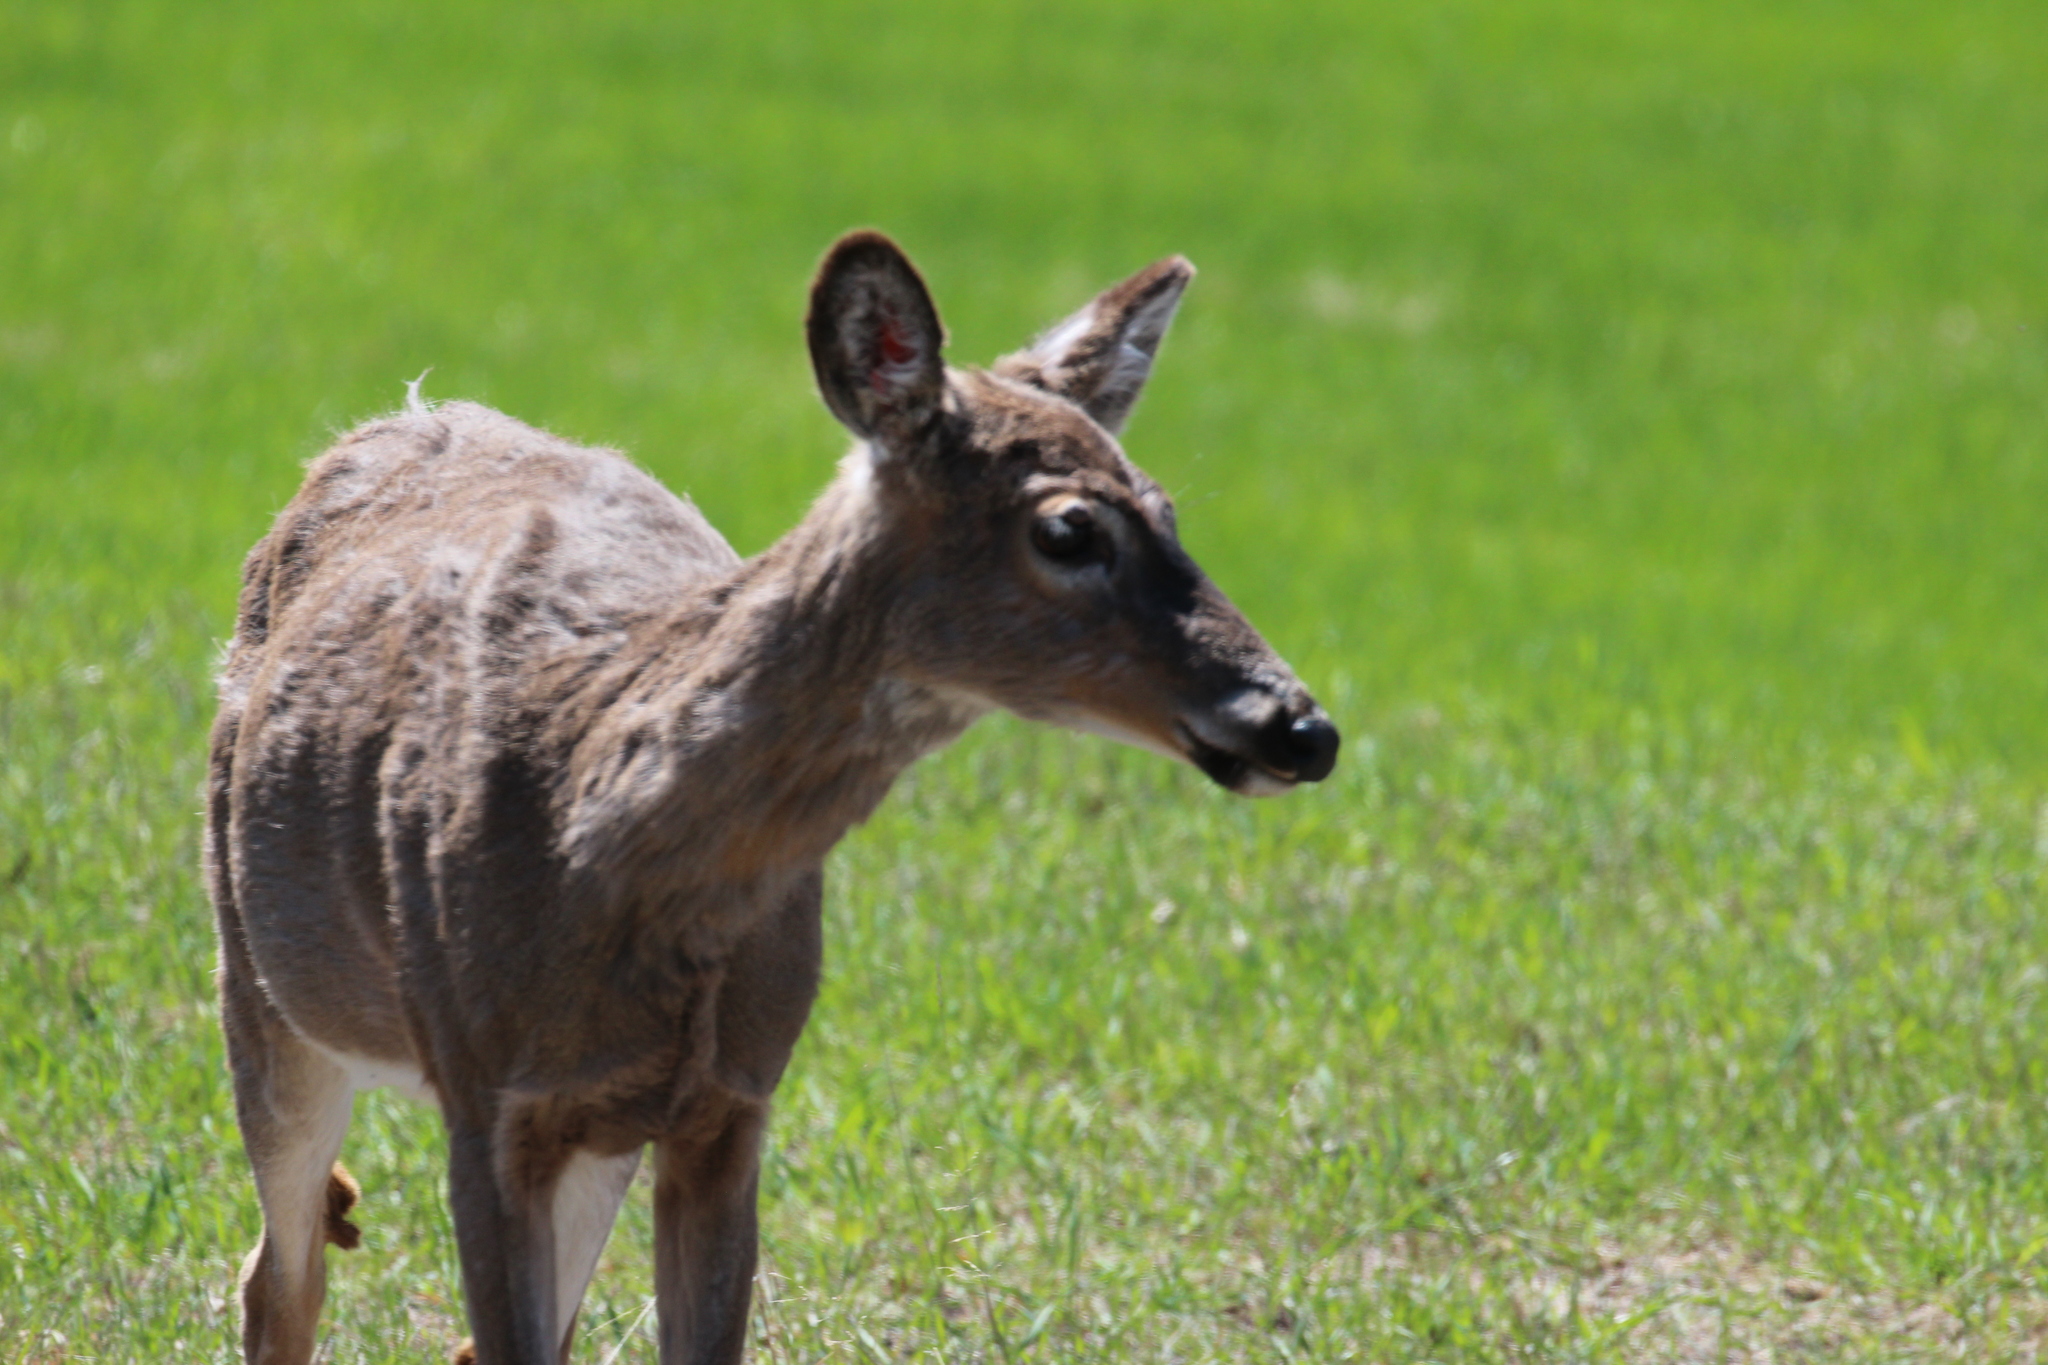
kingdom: Animalia
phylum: Chordata
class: Mammalia
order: Artiodactyla
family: Cervidae
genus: Odocoileus
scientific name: Odocoileus virginianus
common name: White-tailed deer
